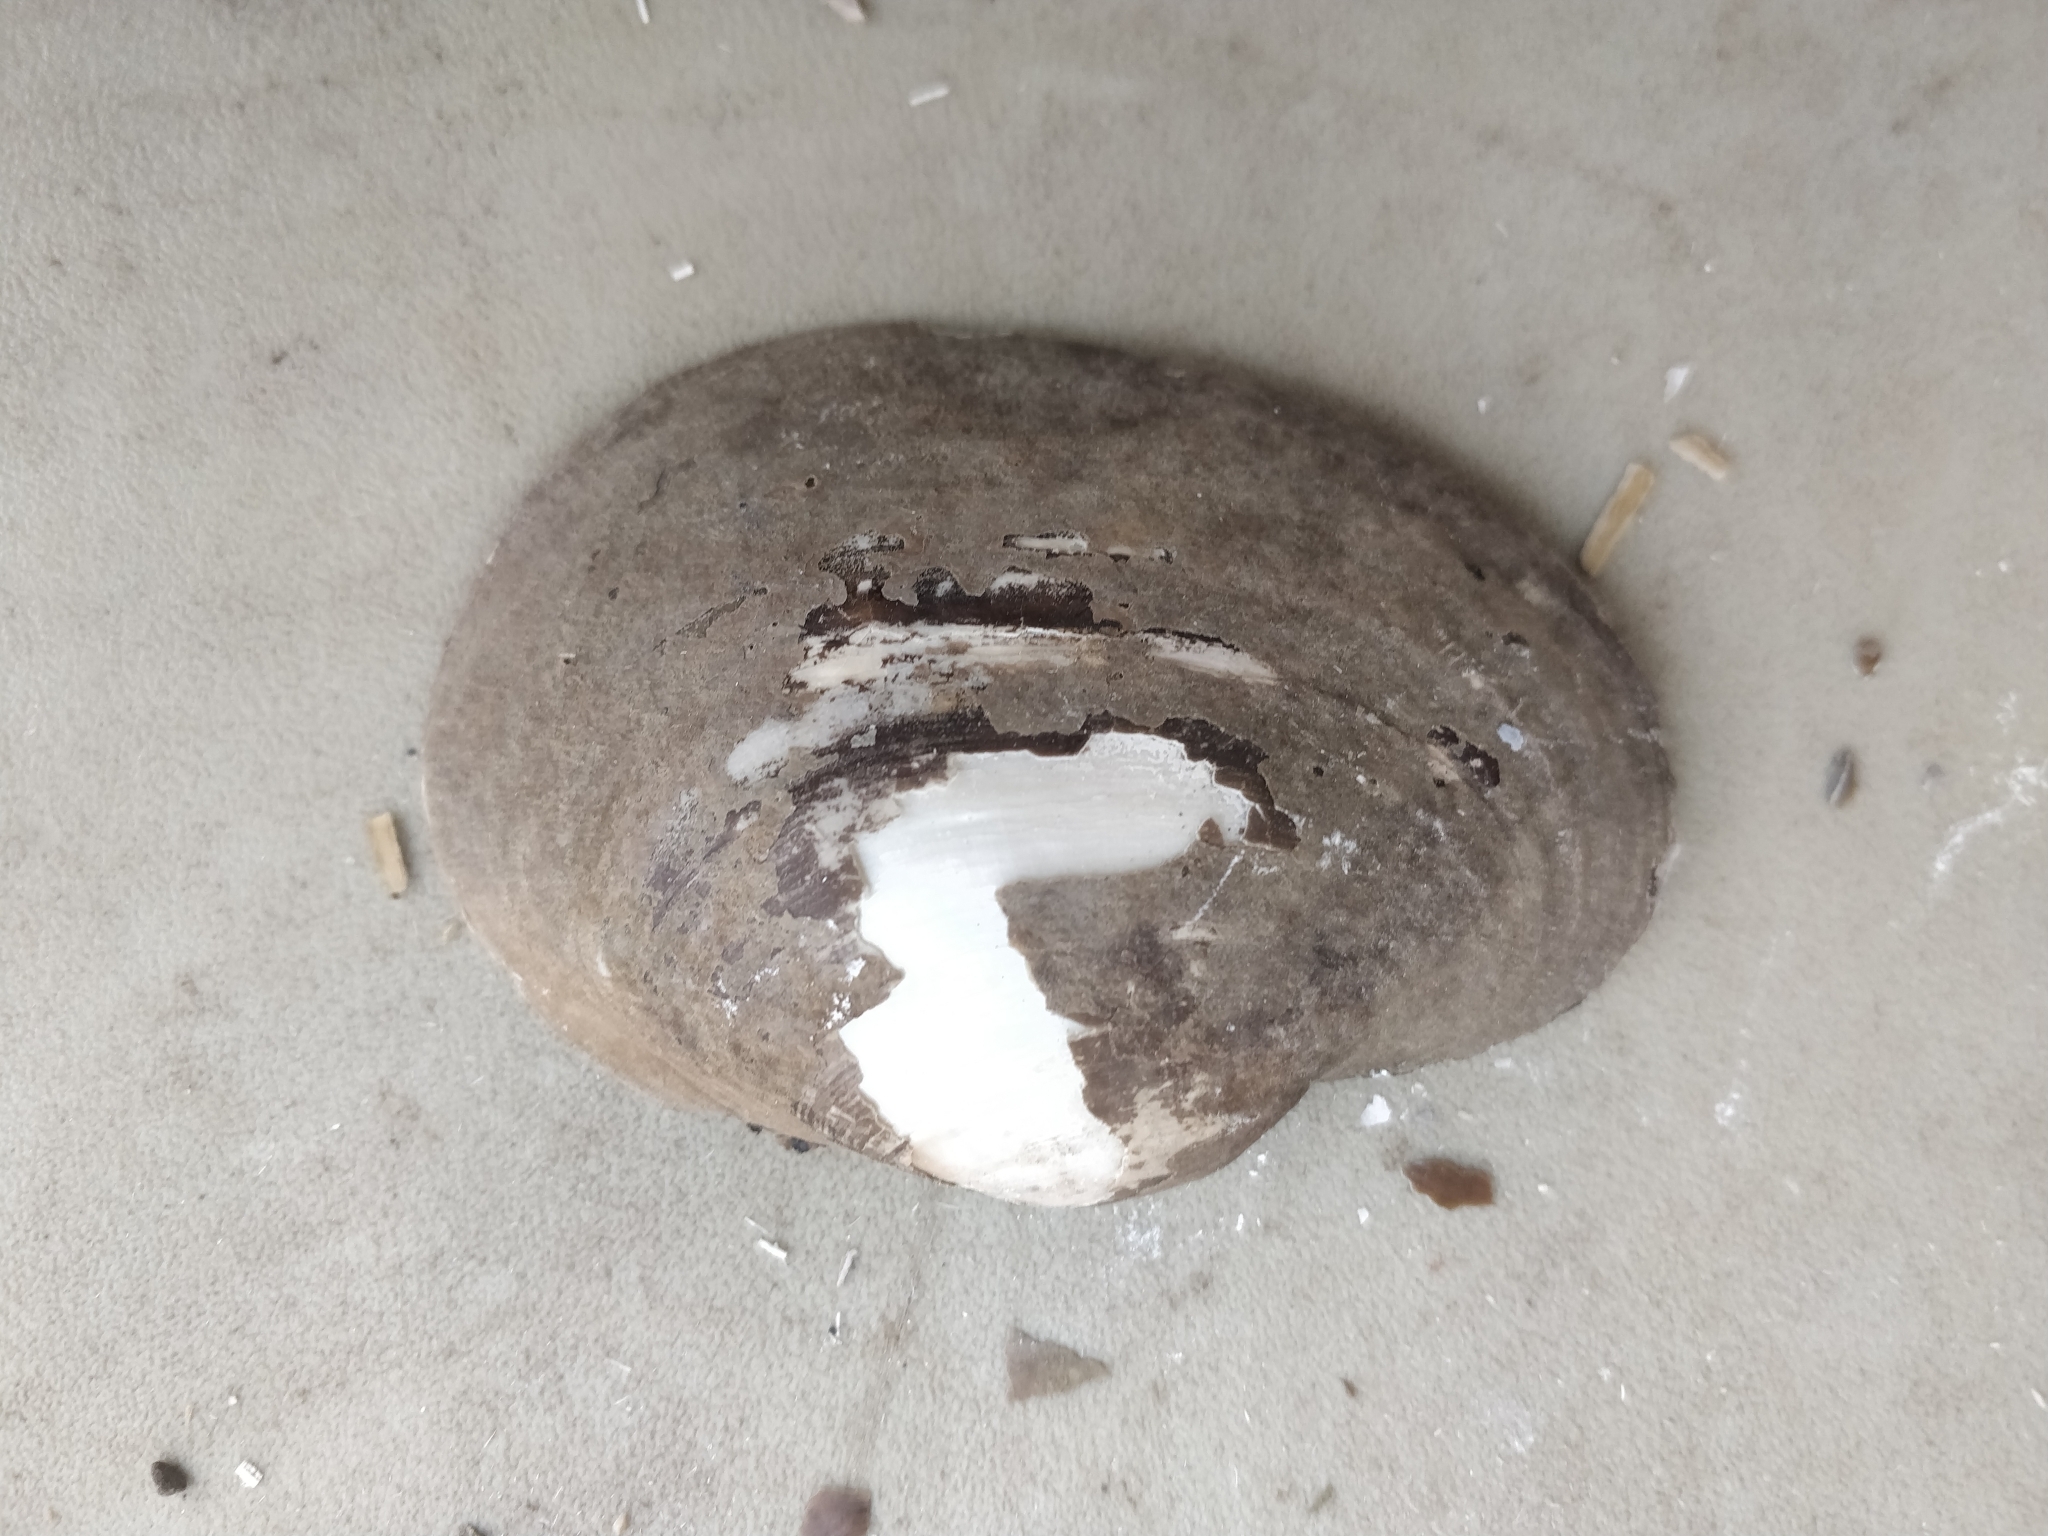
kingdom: Animalia
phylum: Mollusca
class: Bivalvia
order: Unionida
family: Unionidae
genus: Lampsilis
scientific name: Lampsilis cardium
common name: Plain pocketbook
